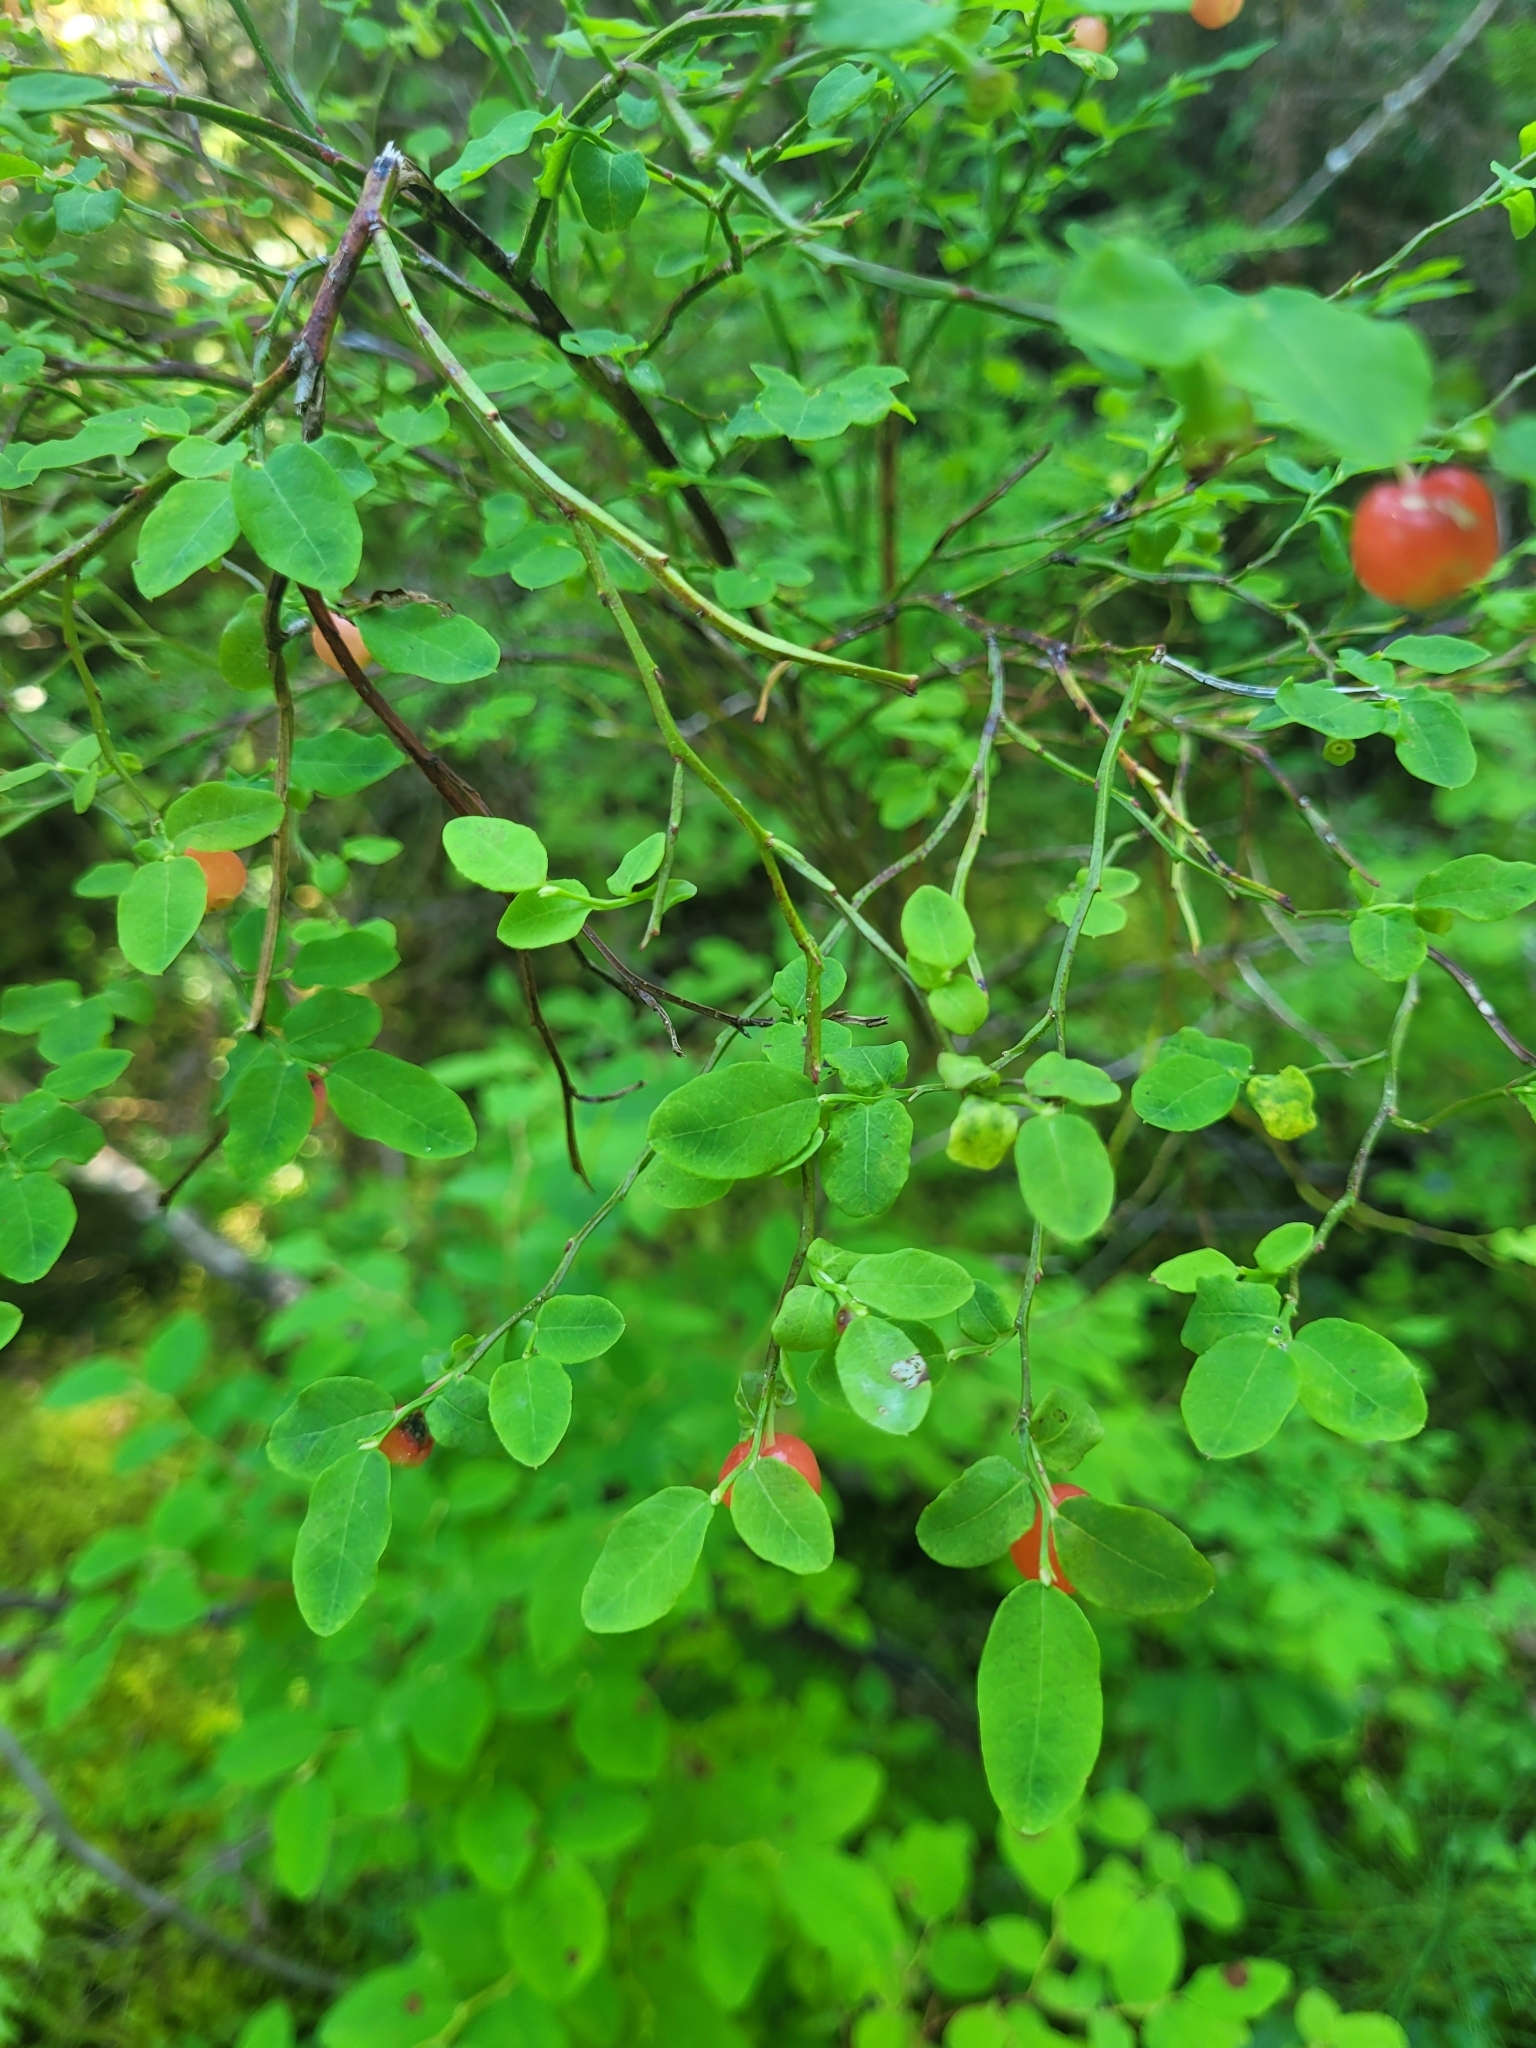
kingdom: Plantae
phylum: Tracheophyta
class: Magnoliopsida
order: Ericales
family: Ericaceae
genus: Vaccinium
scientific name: Vaccinium parvifolium
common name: Red-huckleberry
